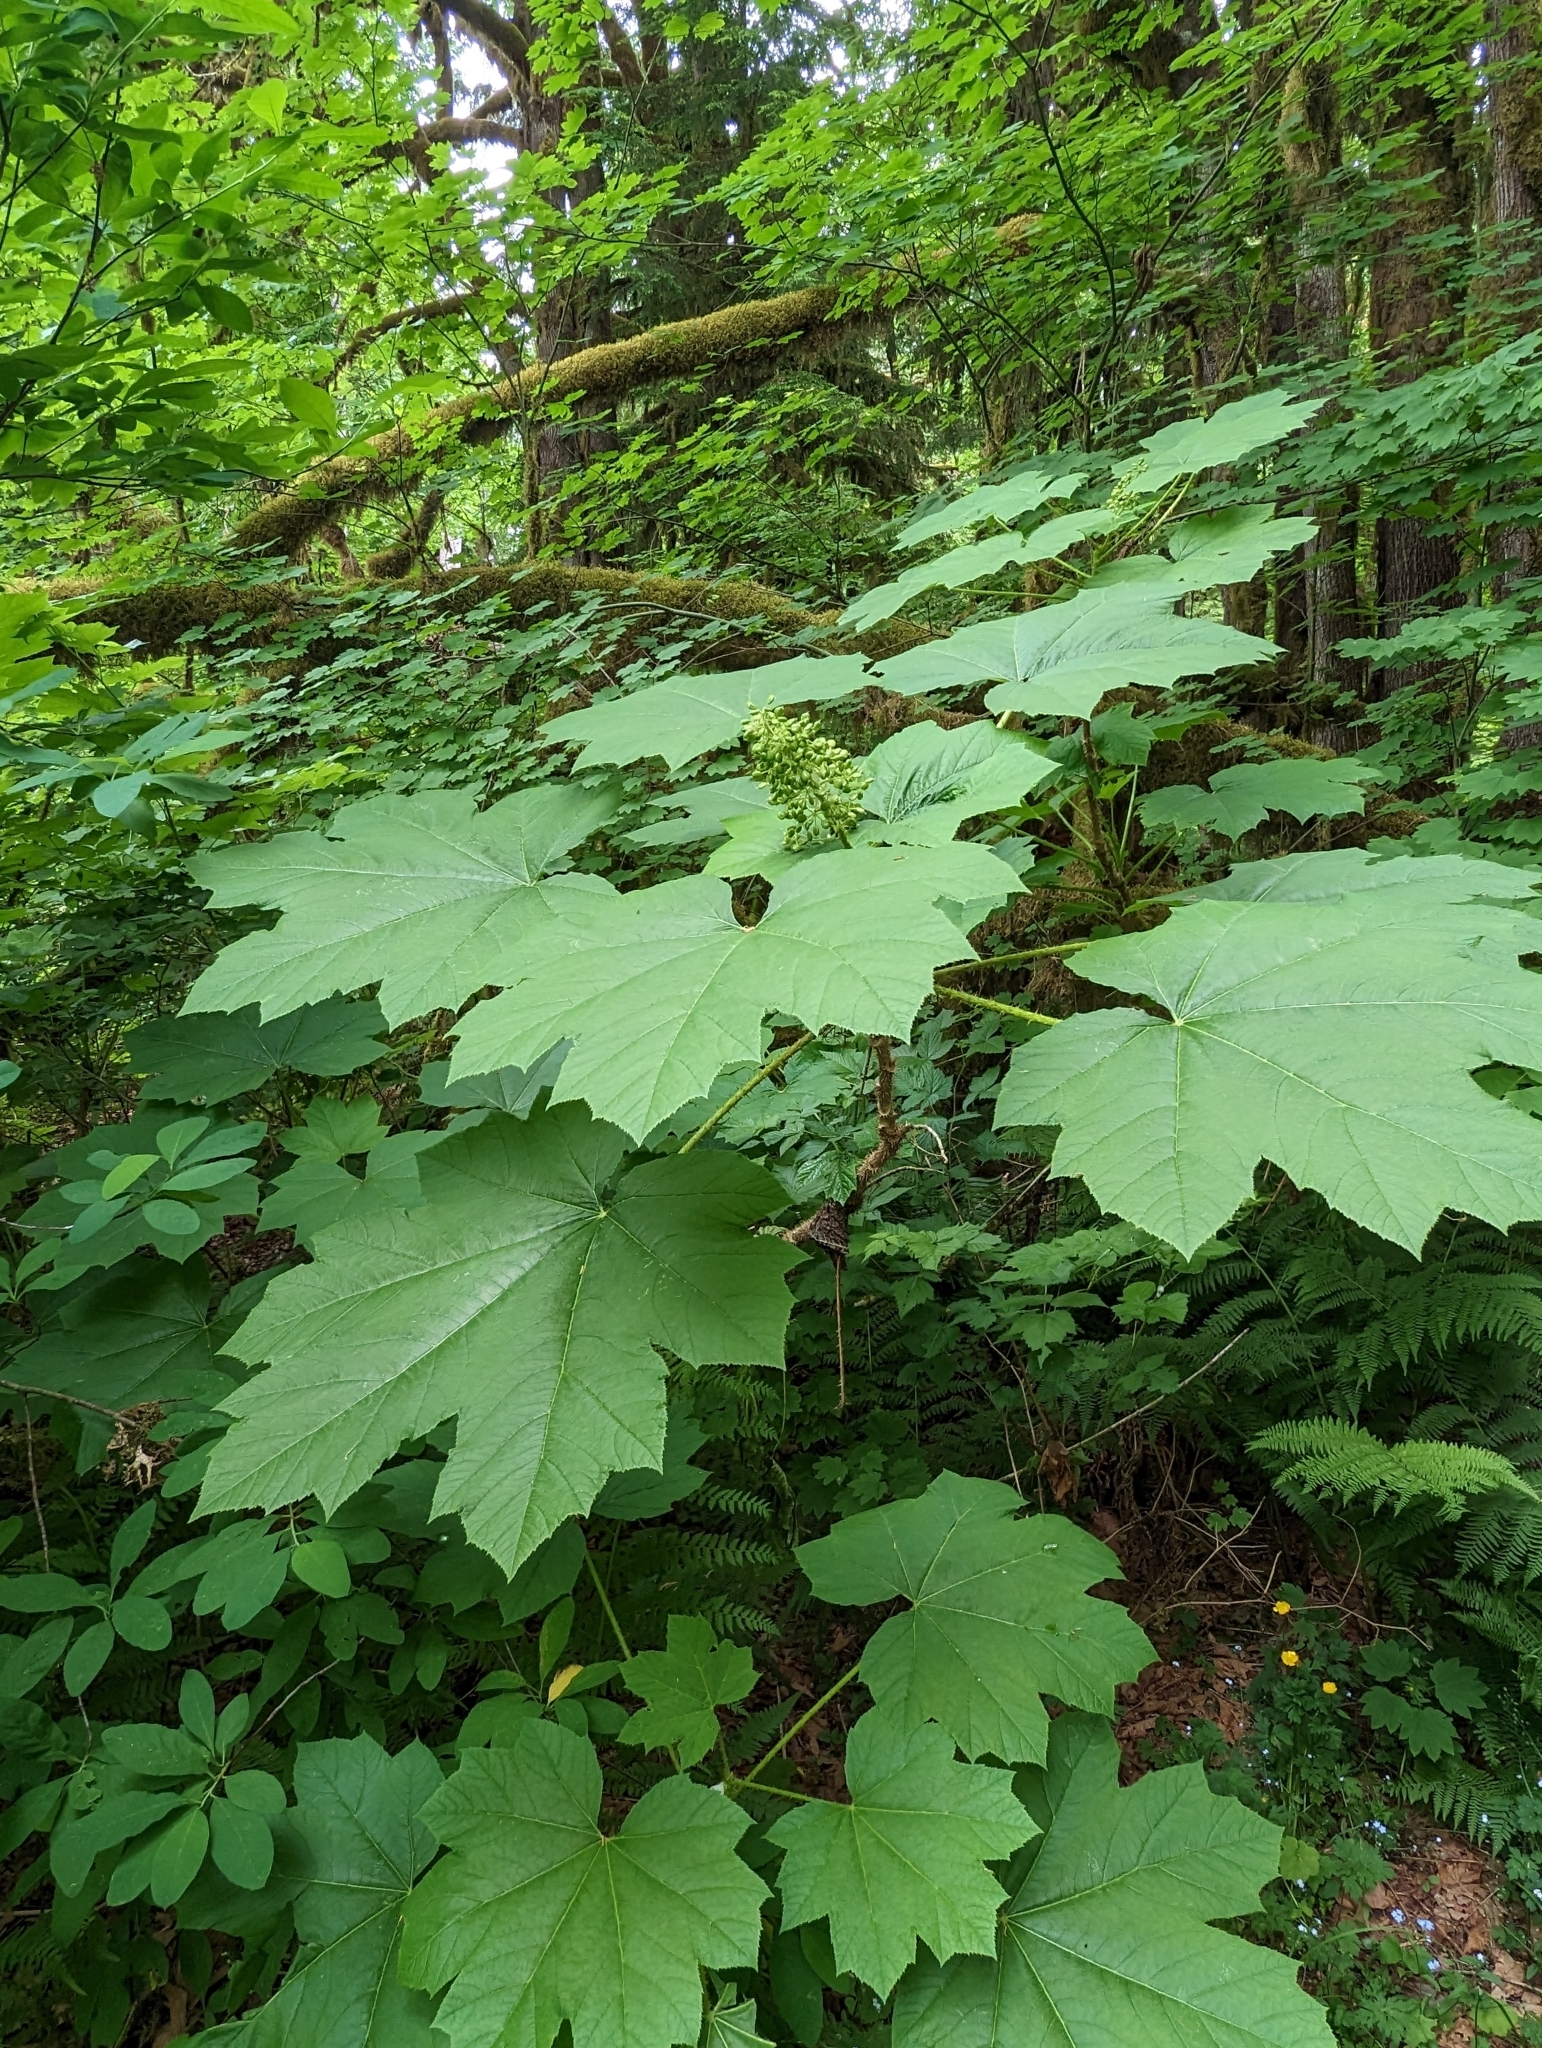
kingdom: Plantae
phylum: Tracheophyta
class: Magnoliopsida
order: Apiales
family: Araliaceae
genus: Oplopanax
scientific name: Oplopanax horridus
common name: Devil's walking-stick
